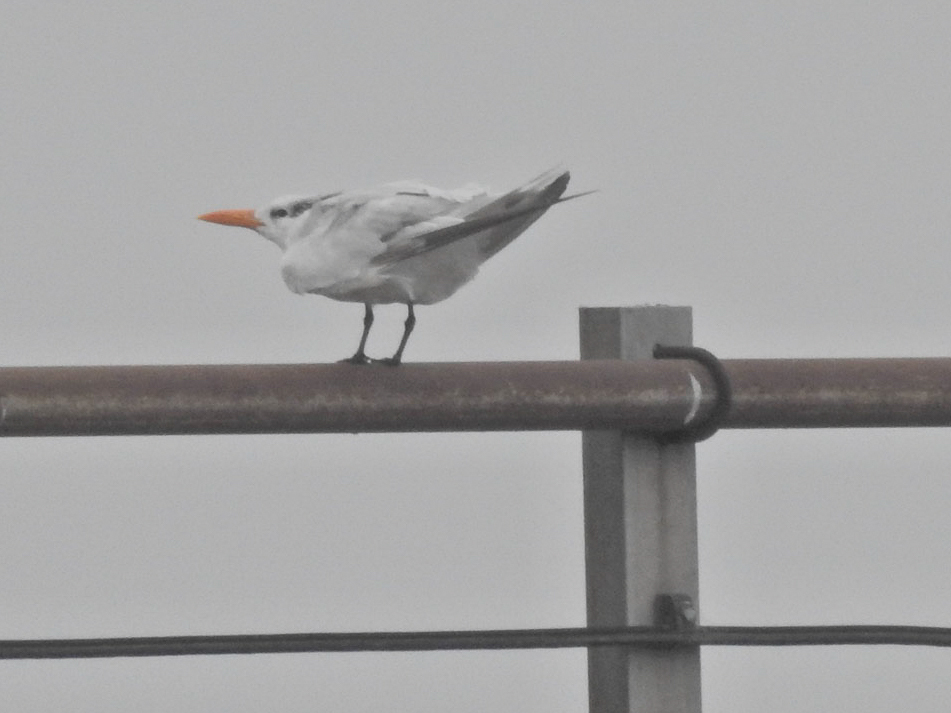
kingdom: Animalia
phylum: Chordata
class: Aves
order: Charadriiformes
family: Laridae
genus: Thalasseus
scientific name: Thalasseus maximus
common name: Royal tern
